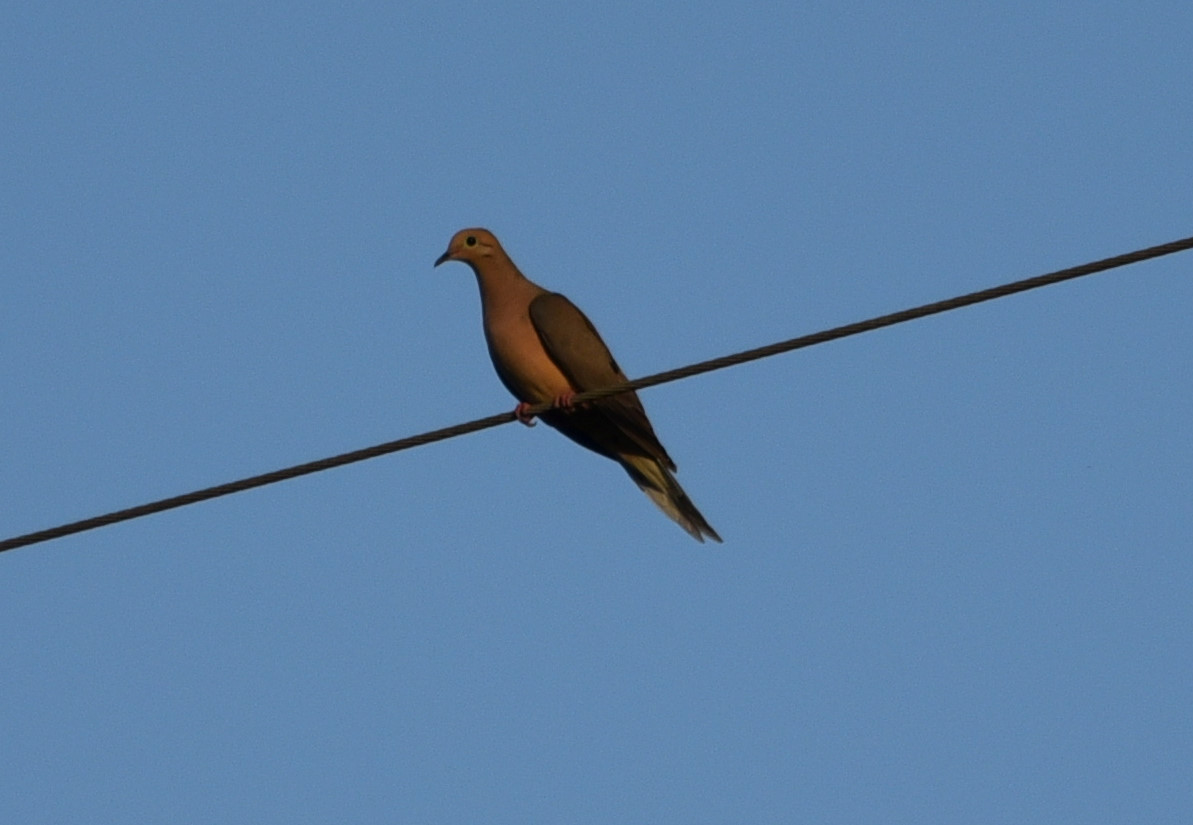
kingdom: Animalia
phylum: Chordata
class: Aves
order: Columbiformes
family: Columbidae
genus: Zenaida
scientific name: Zenaida macroura
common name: Mourning dove
